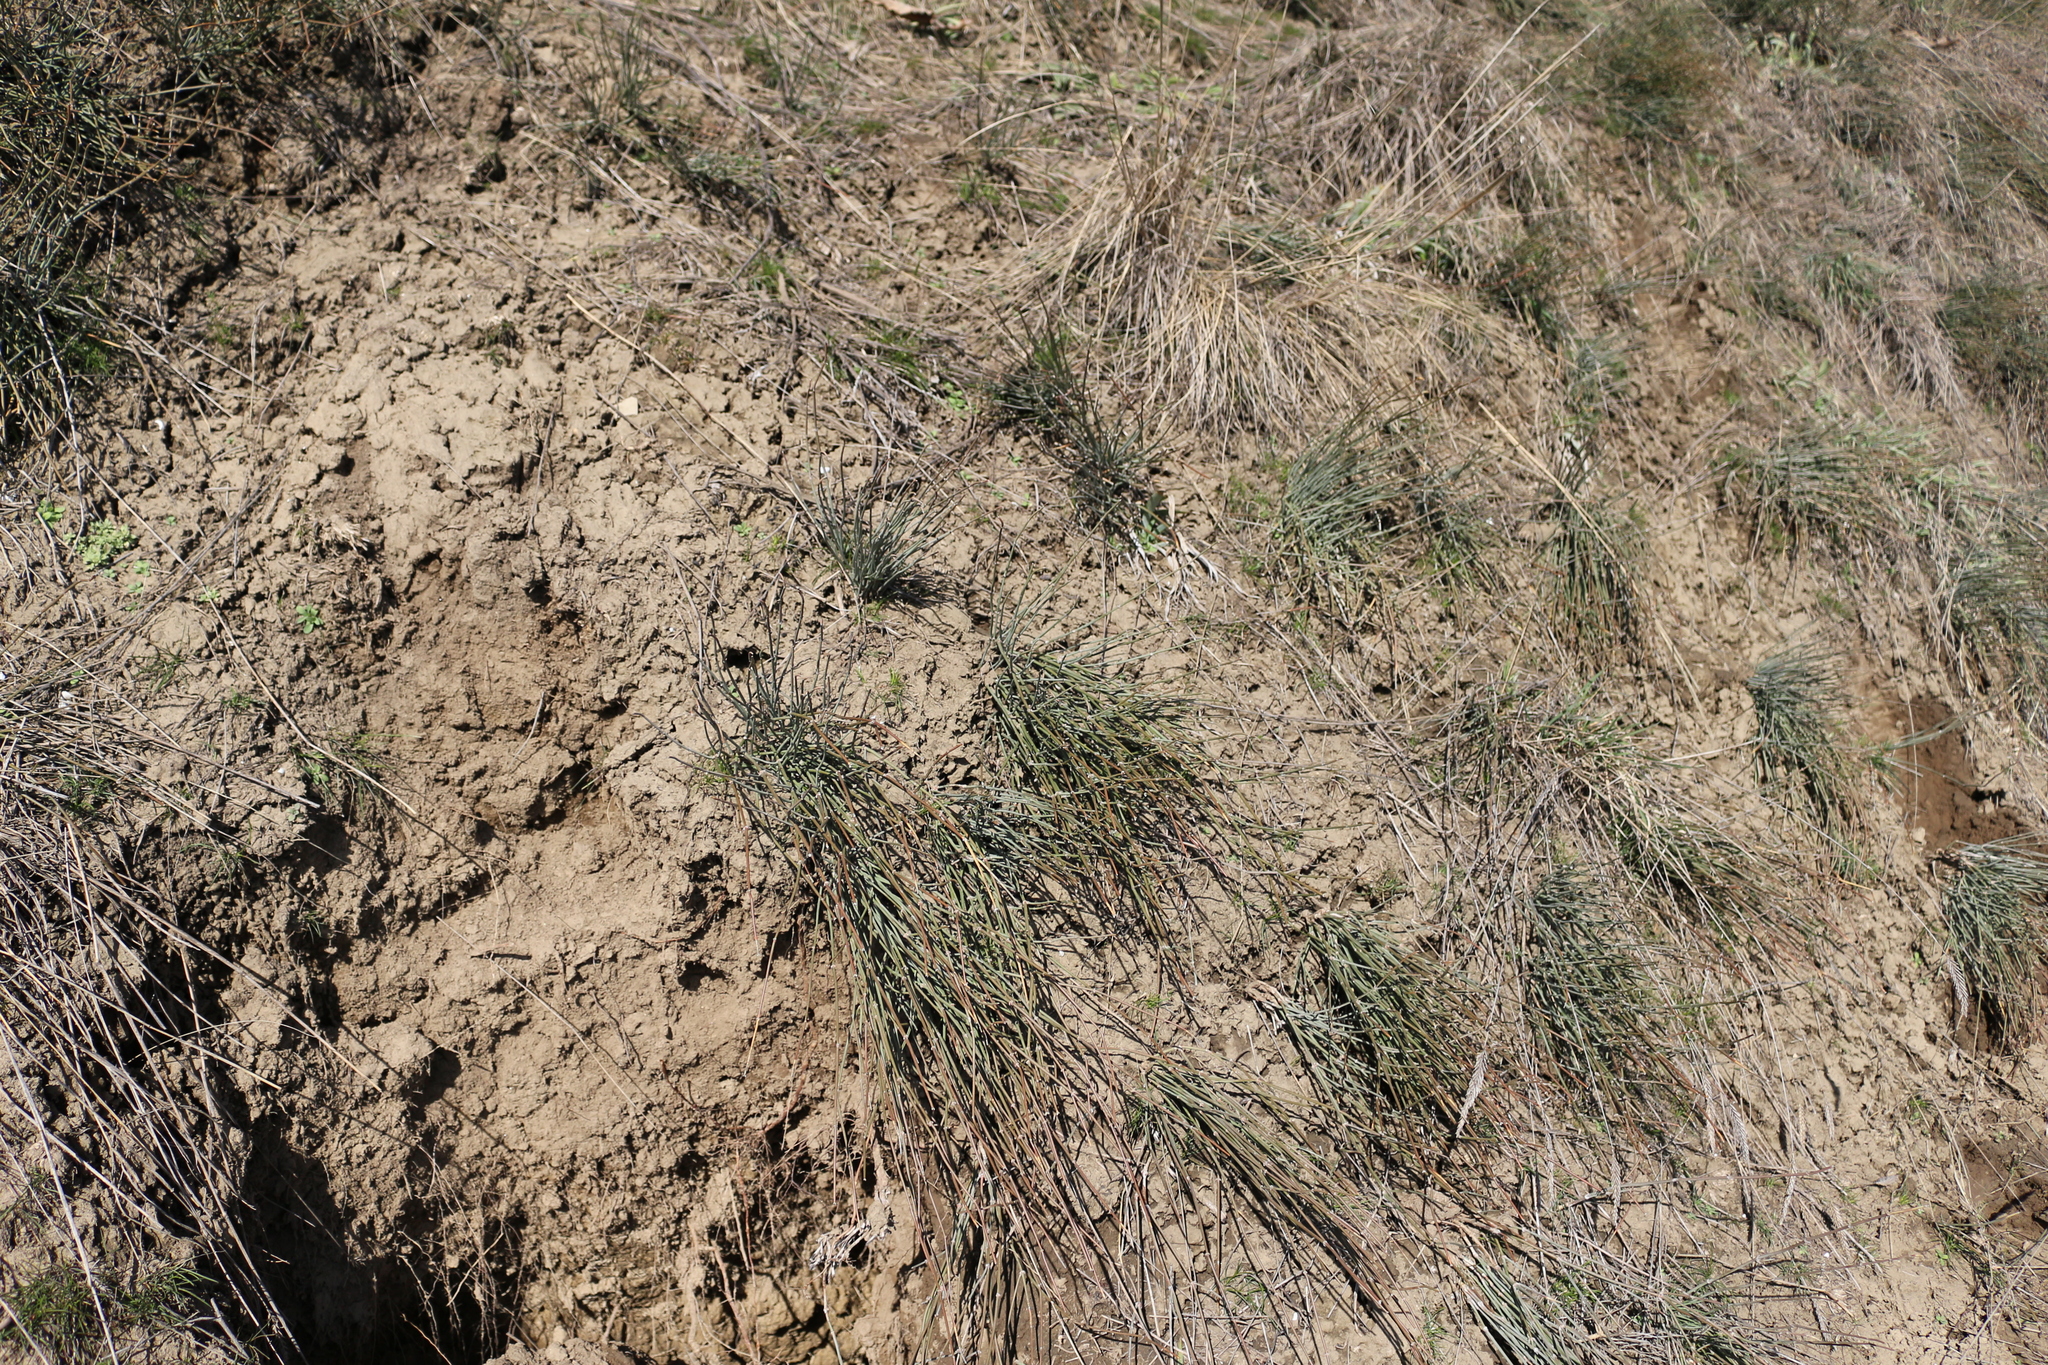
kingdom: Plantae
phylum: Tracheophyta
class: Gnetopsida
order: Ephedrales
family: Ephedraceae
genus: Ephedra
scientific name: Ephedra distachya
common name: Sea grape
